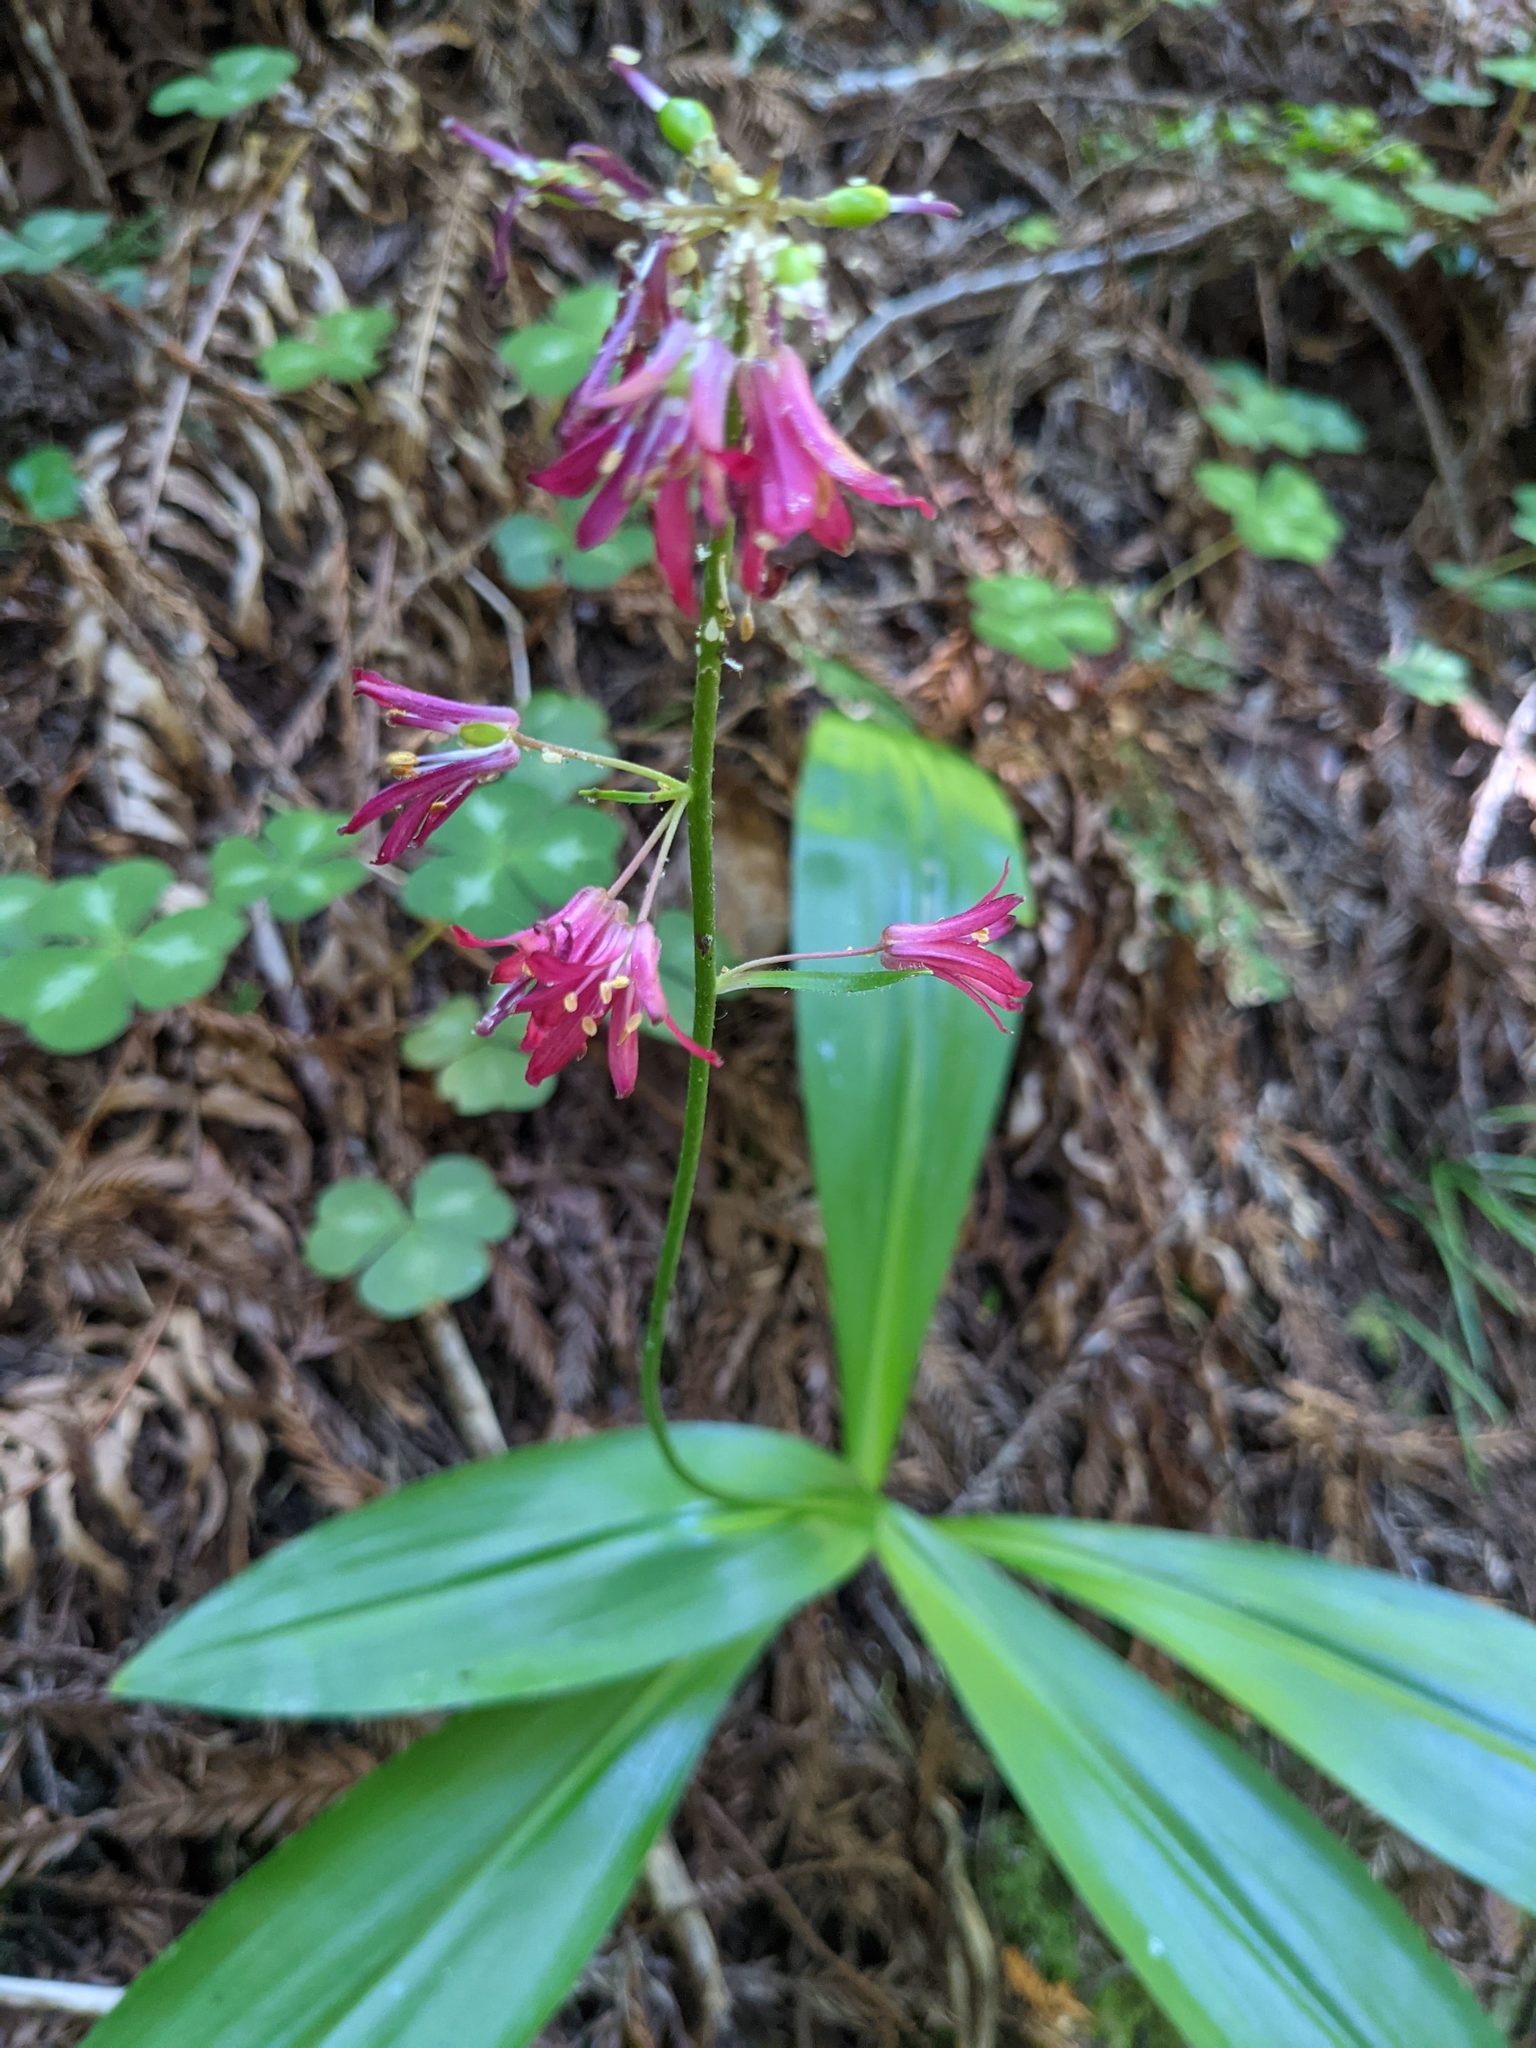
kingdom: Plantae
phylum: Tracheophyta
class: Liliopsida
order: Liliales
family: Liliaceae
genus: Clintonia
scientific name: Clintonia andrewsiana
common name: Red clintonia
